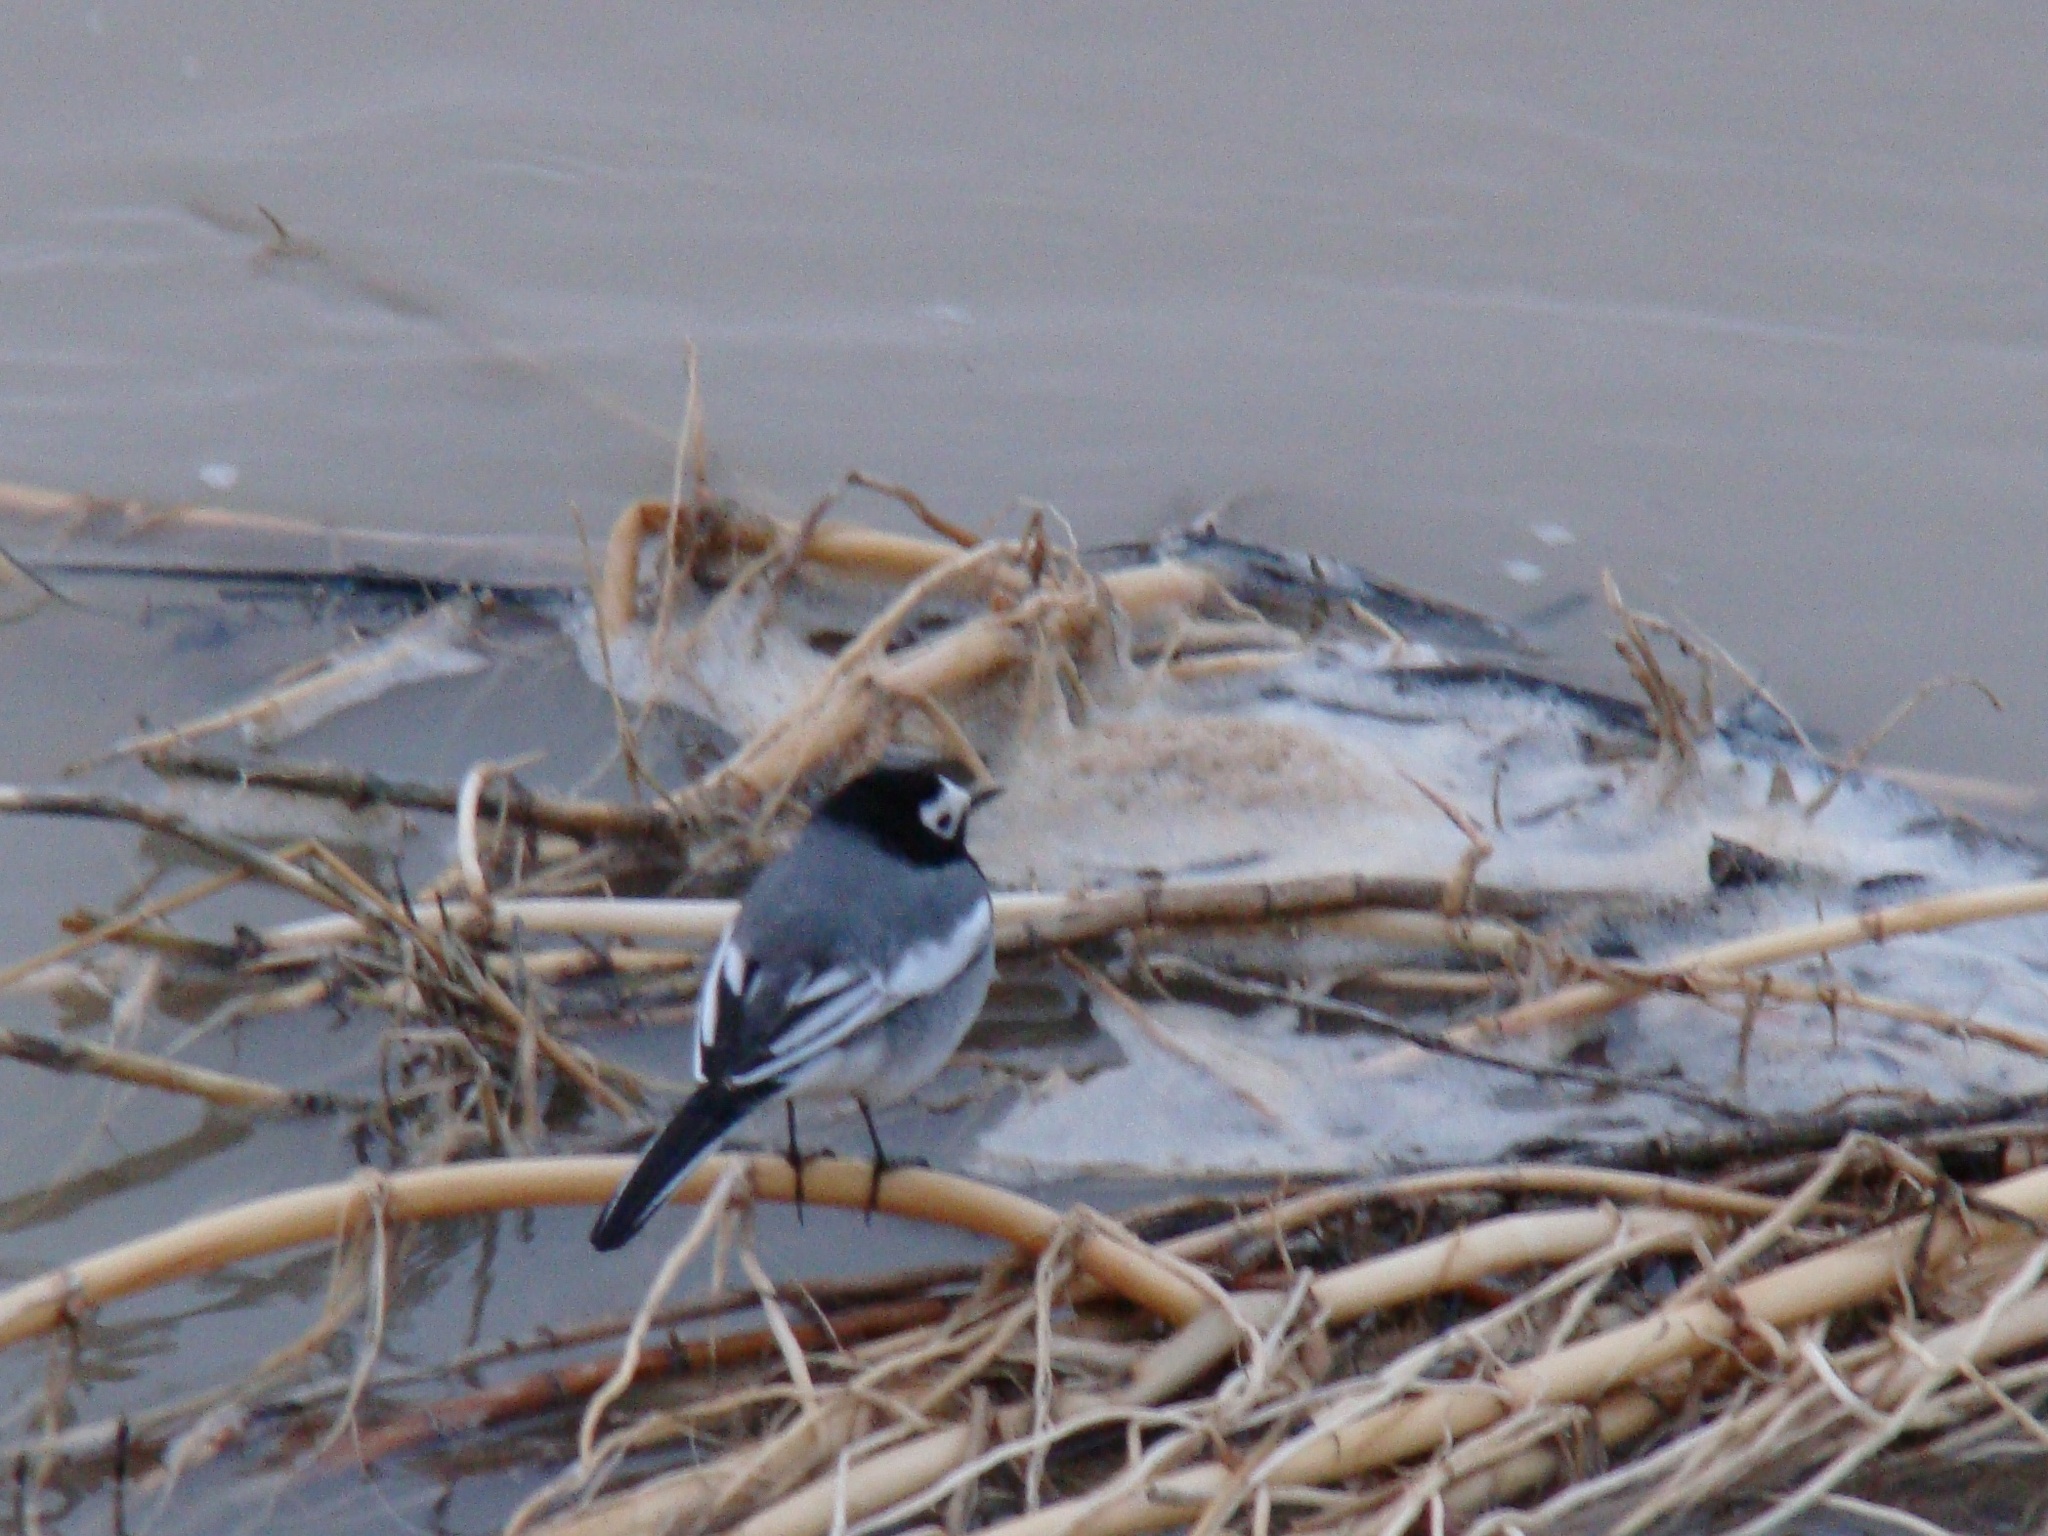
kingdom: Animalia
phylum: Chordata
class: Aves
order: Passeriformes
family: Motacillidae
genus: Motacilla
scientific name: Motacilla alba
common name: White wagtail
